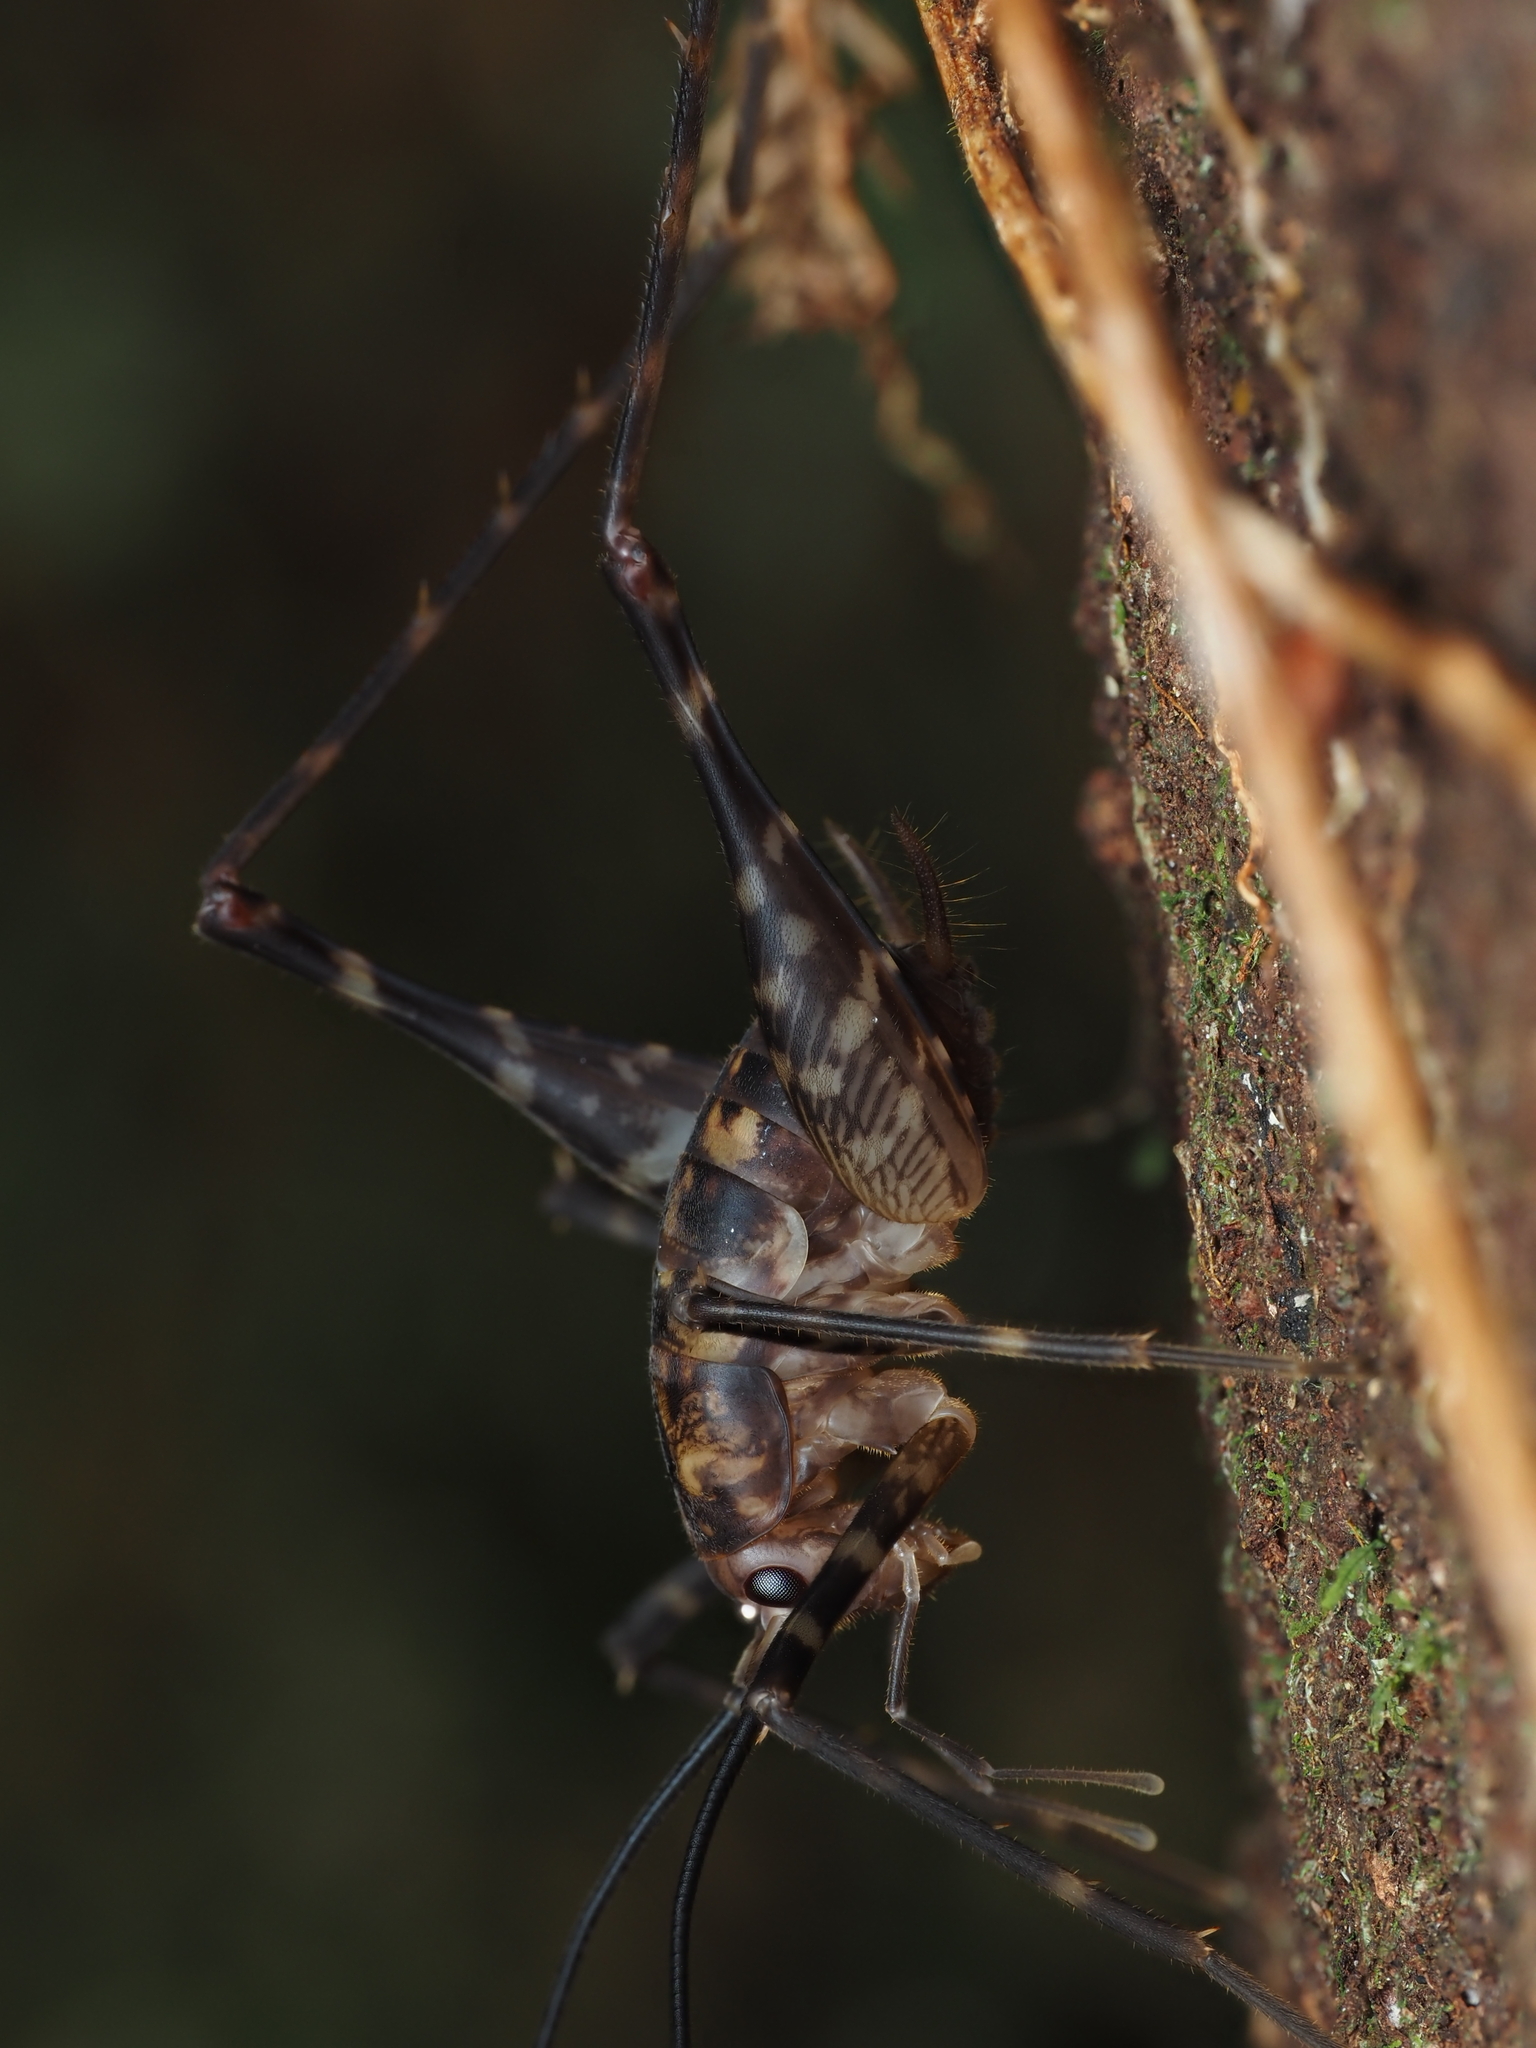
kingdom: Animalia
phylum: Arthropoda
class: Insecta
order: Orthoptera
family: Rhaphidophoridae
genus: Miotopus
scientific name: Miotopus richardsae
